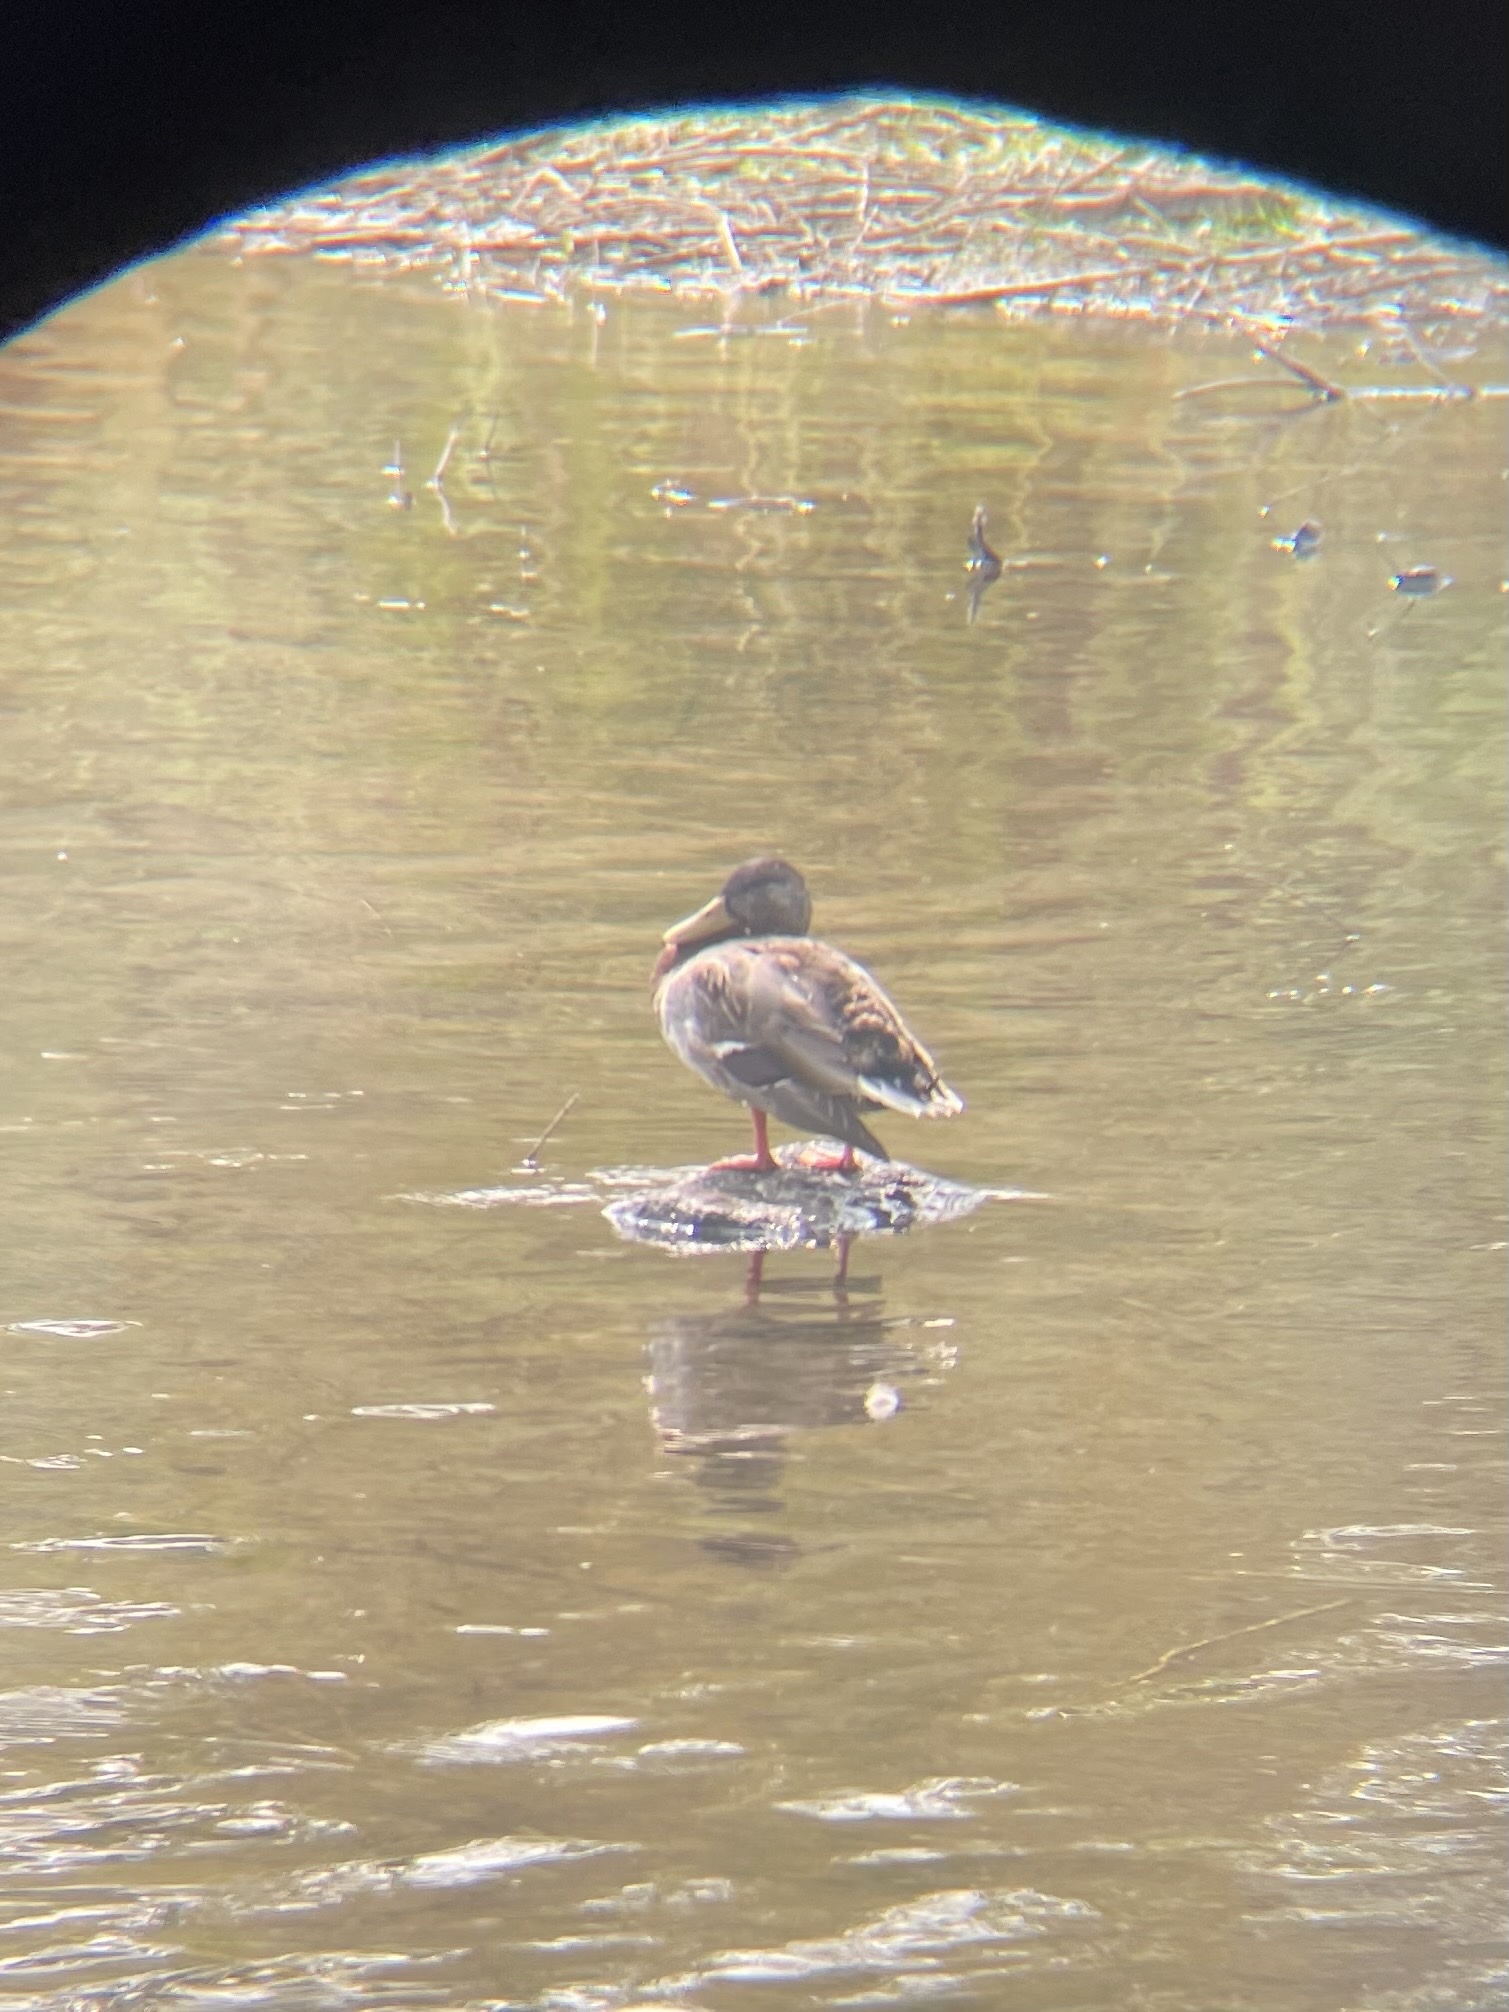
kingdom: Animalia
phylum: Chordata
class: Aves
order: Anseriformes
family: Anatidae
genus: Anas
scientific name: Anas platyrhynchos
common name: Mallard
